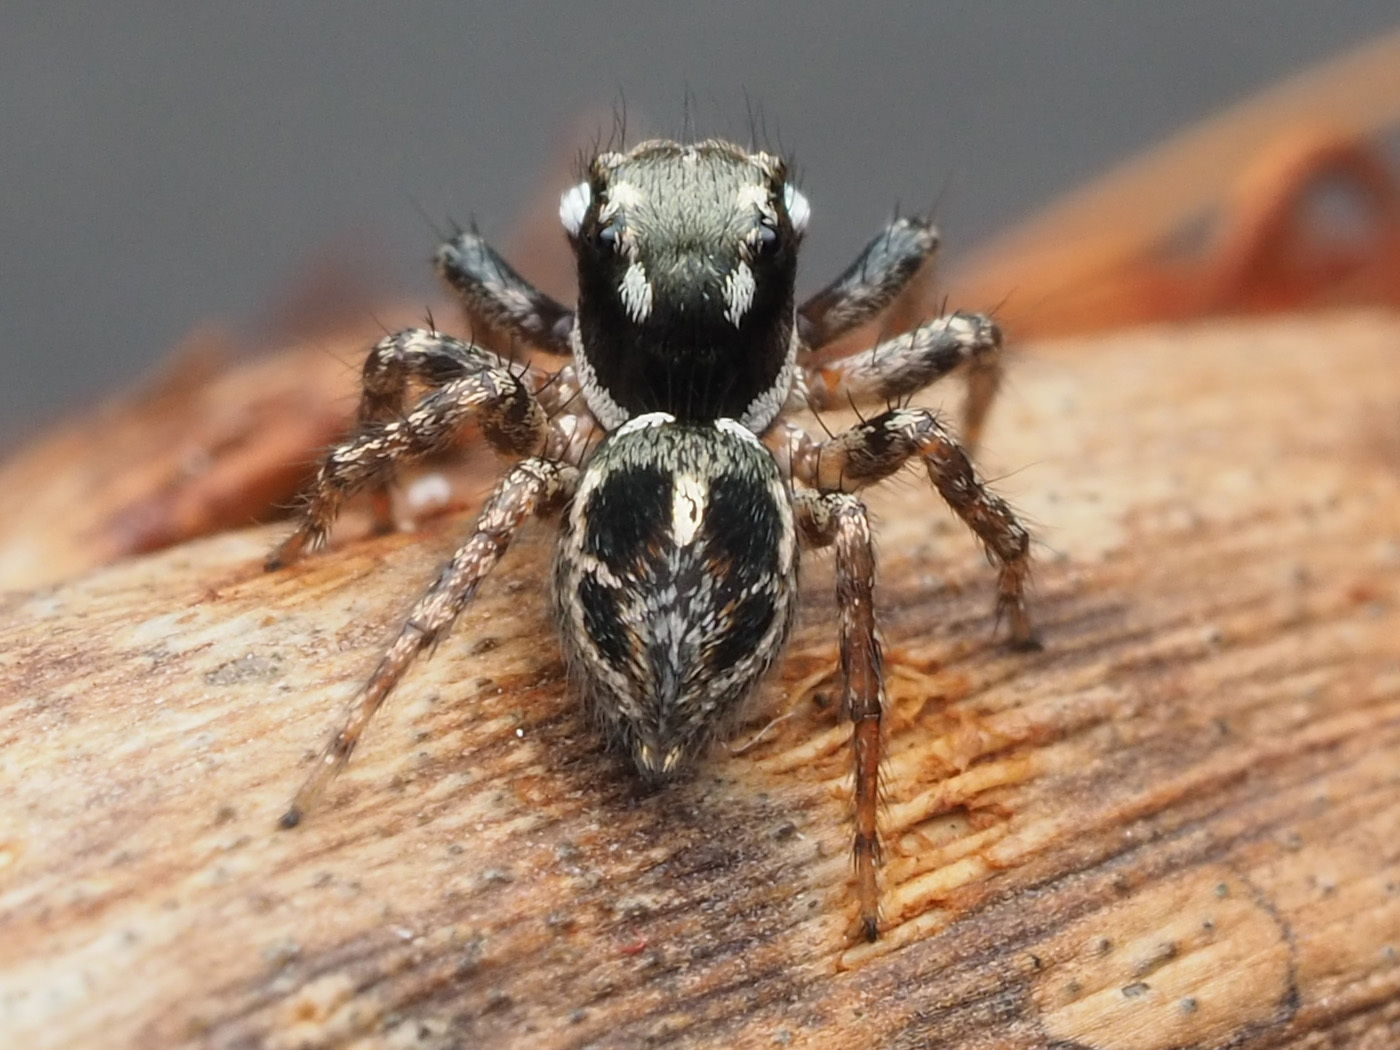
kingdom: Animalia
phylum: Arthropoda
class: Arachnida
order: Araneae
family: Salticidae
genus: Anasaitis
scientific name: Anasaitis canosa
